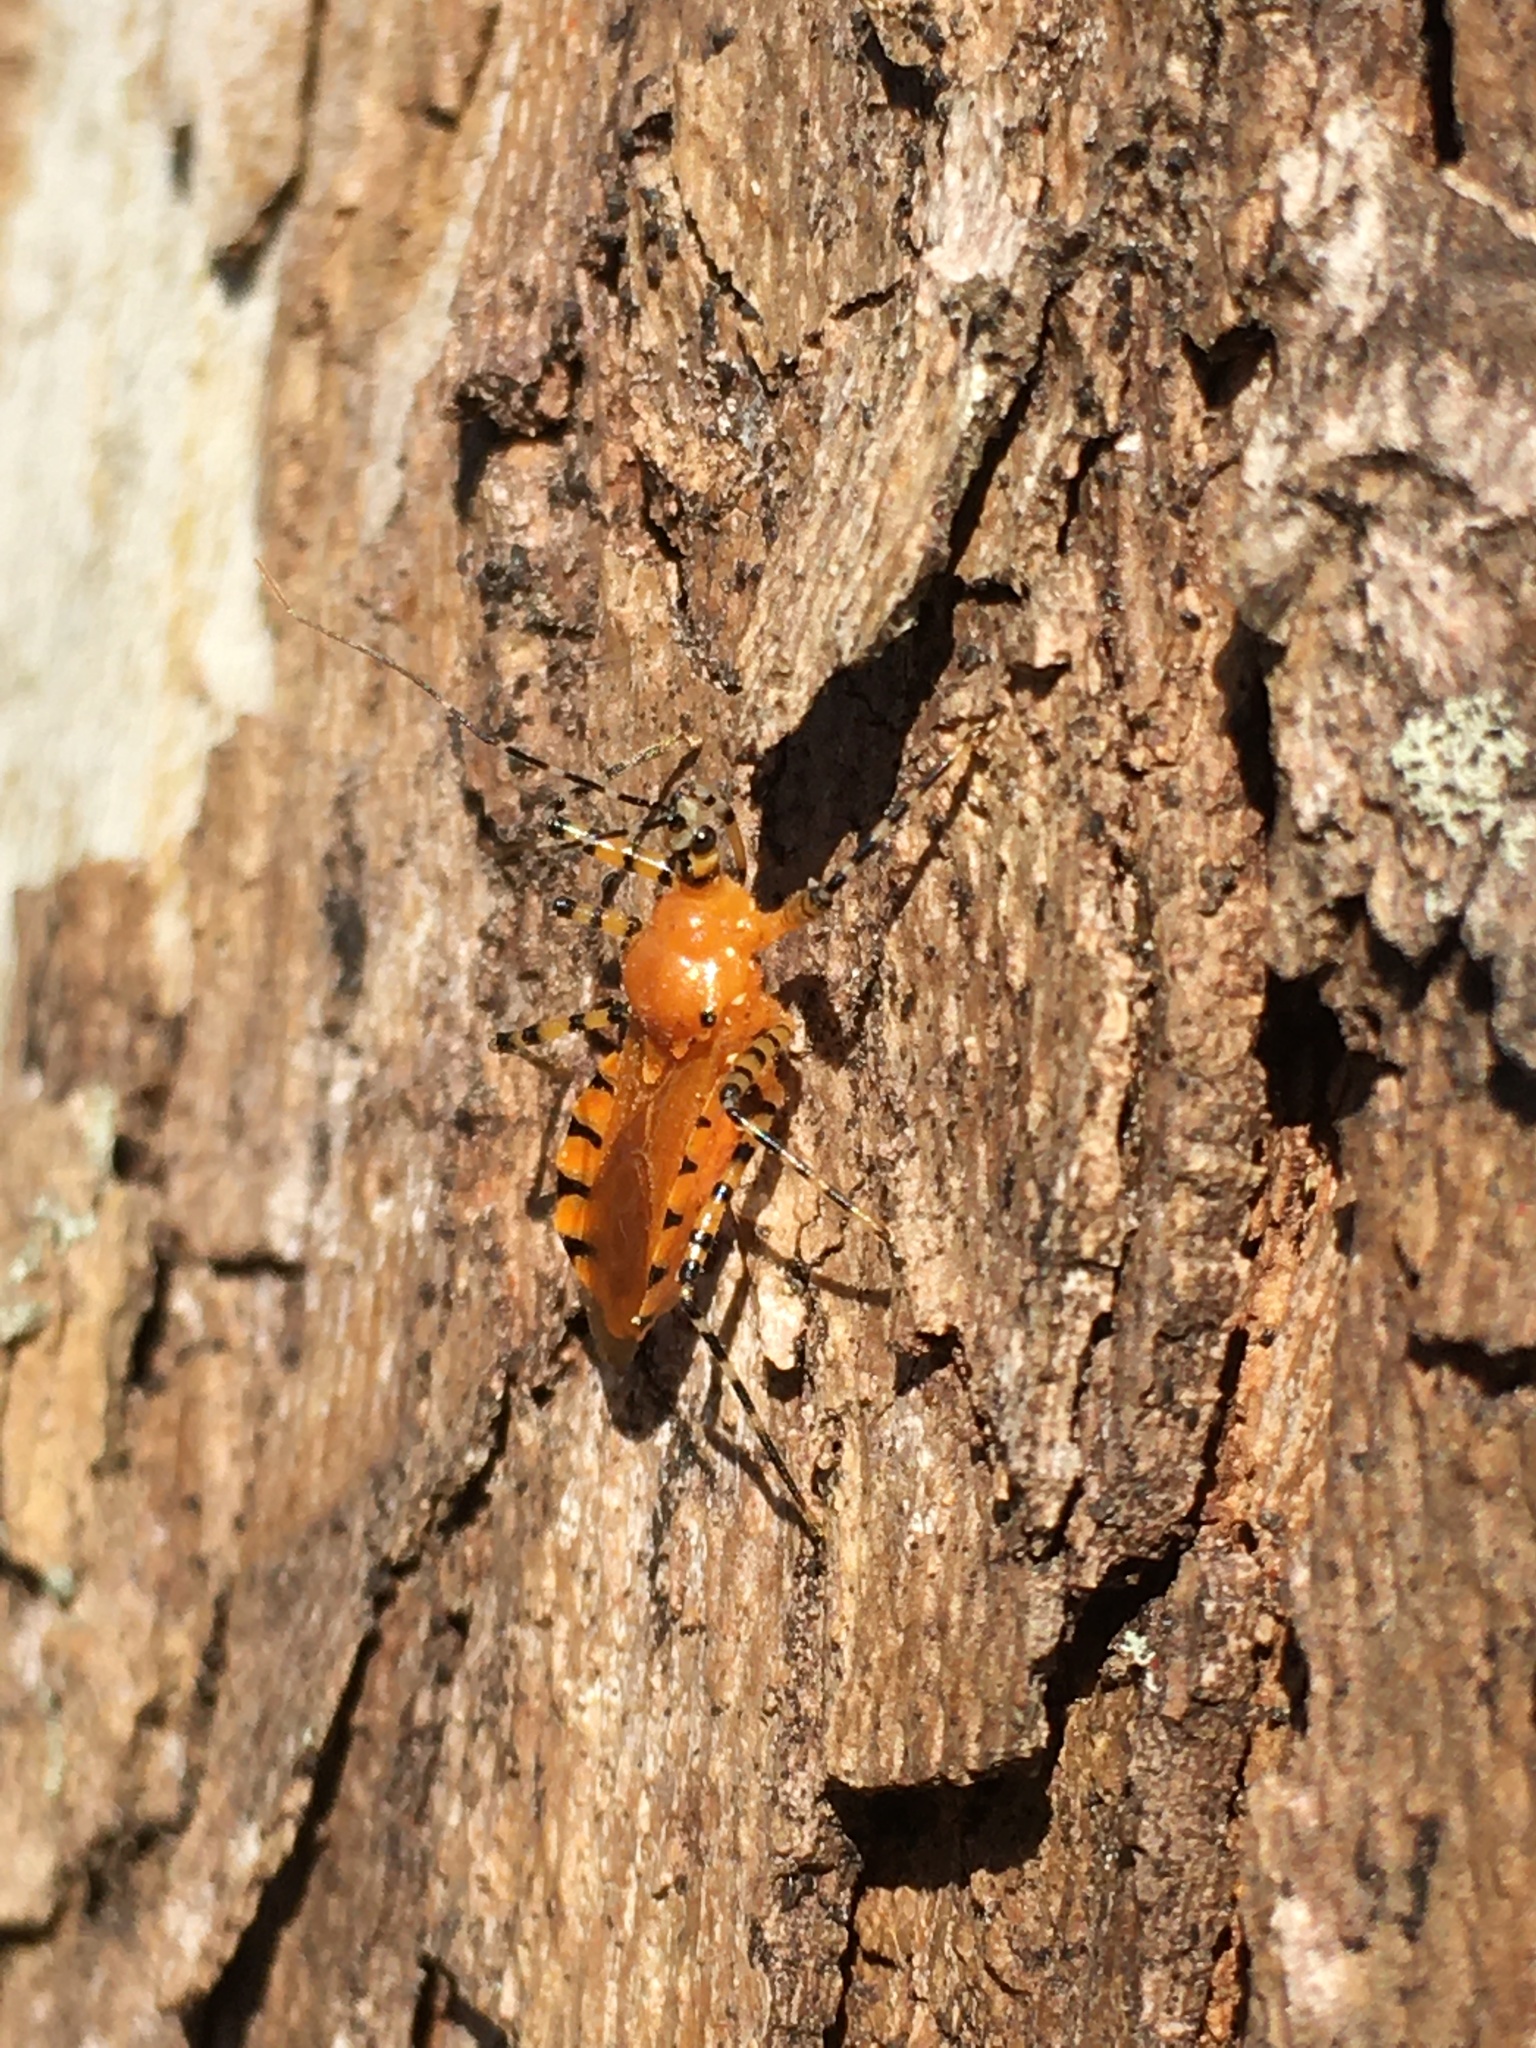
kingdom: Animalia
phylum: Arthropoda
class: Insecta
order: Hemiptera
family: Reduviidae
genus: Pselliopus
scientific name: Pselliopus barberi
